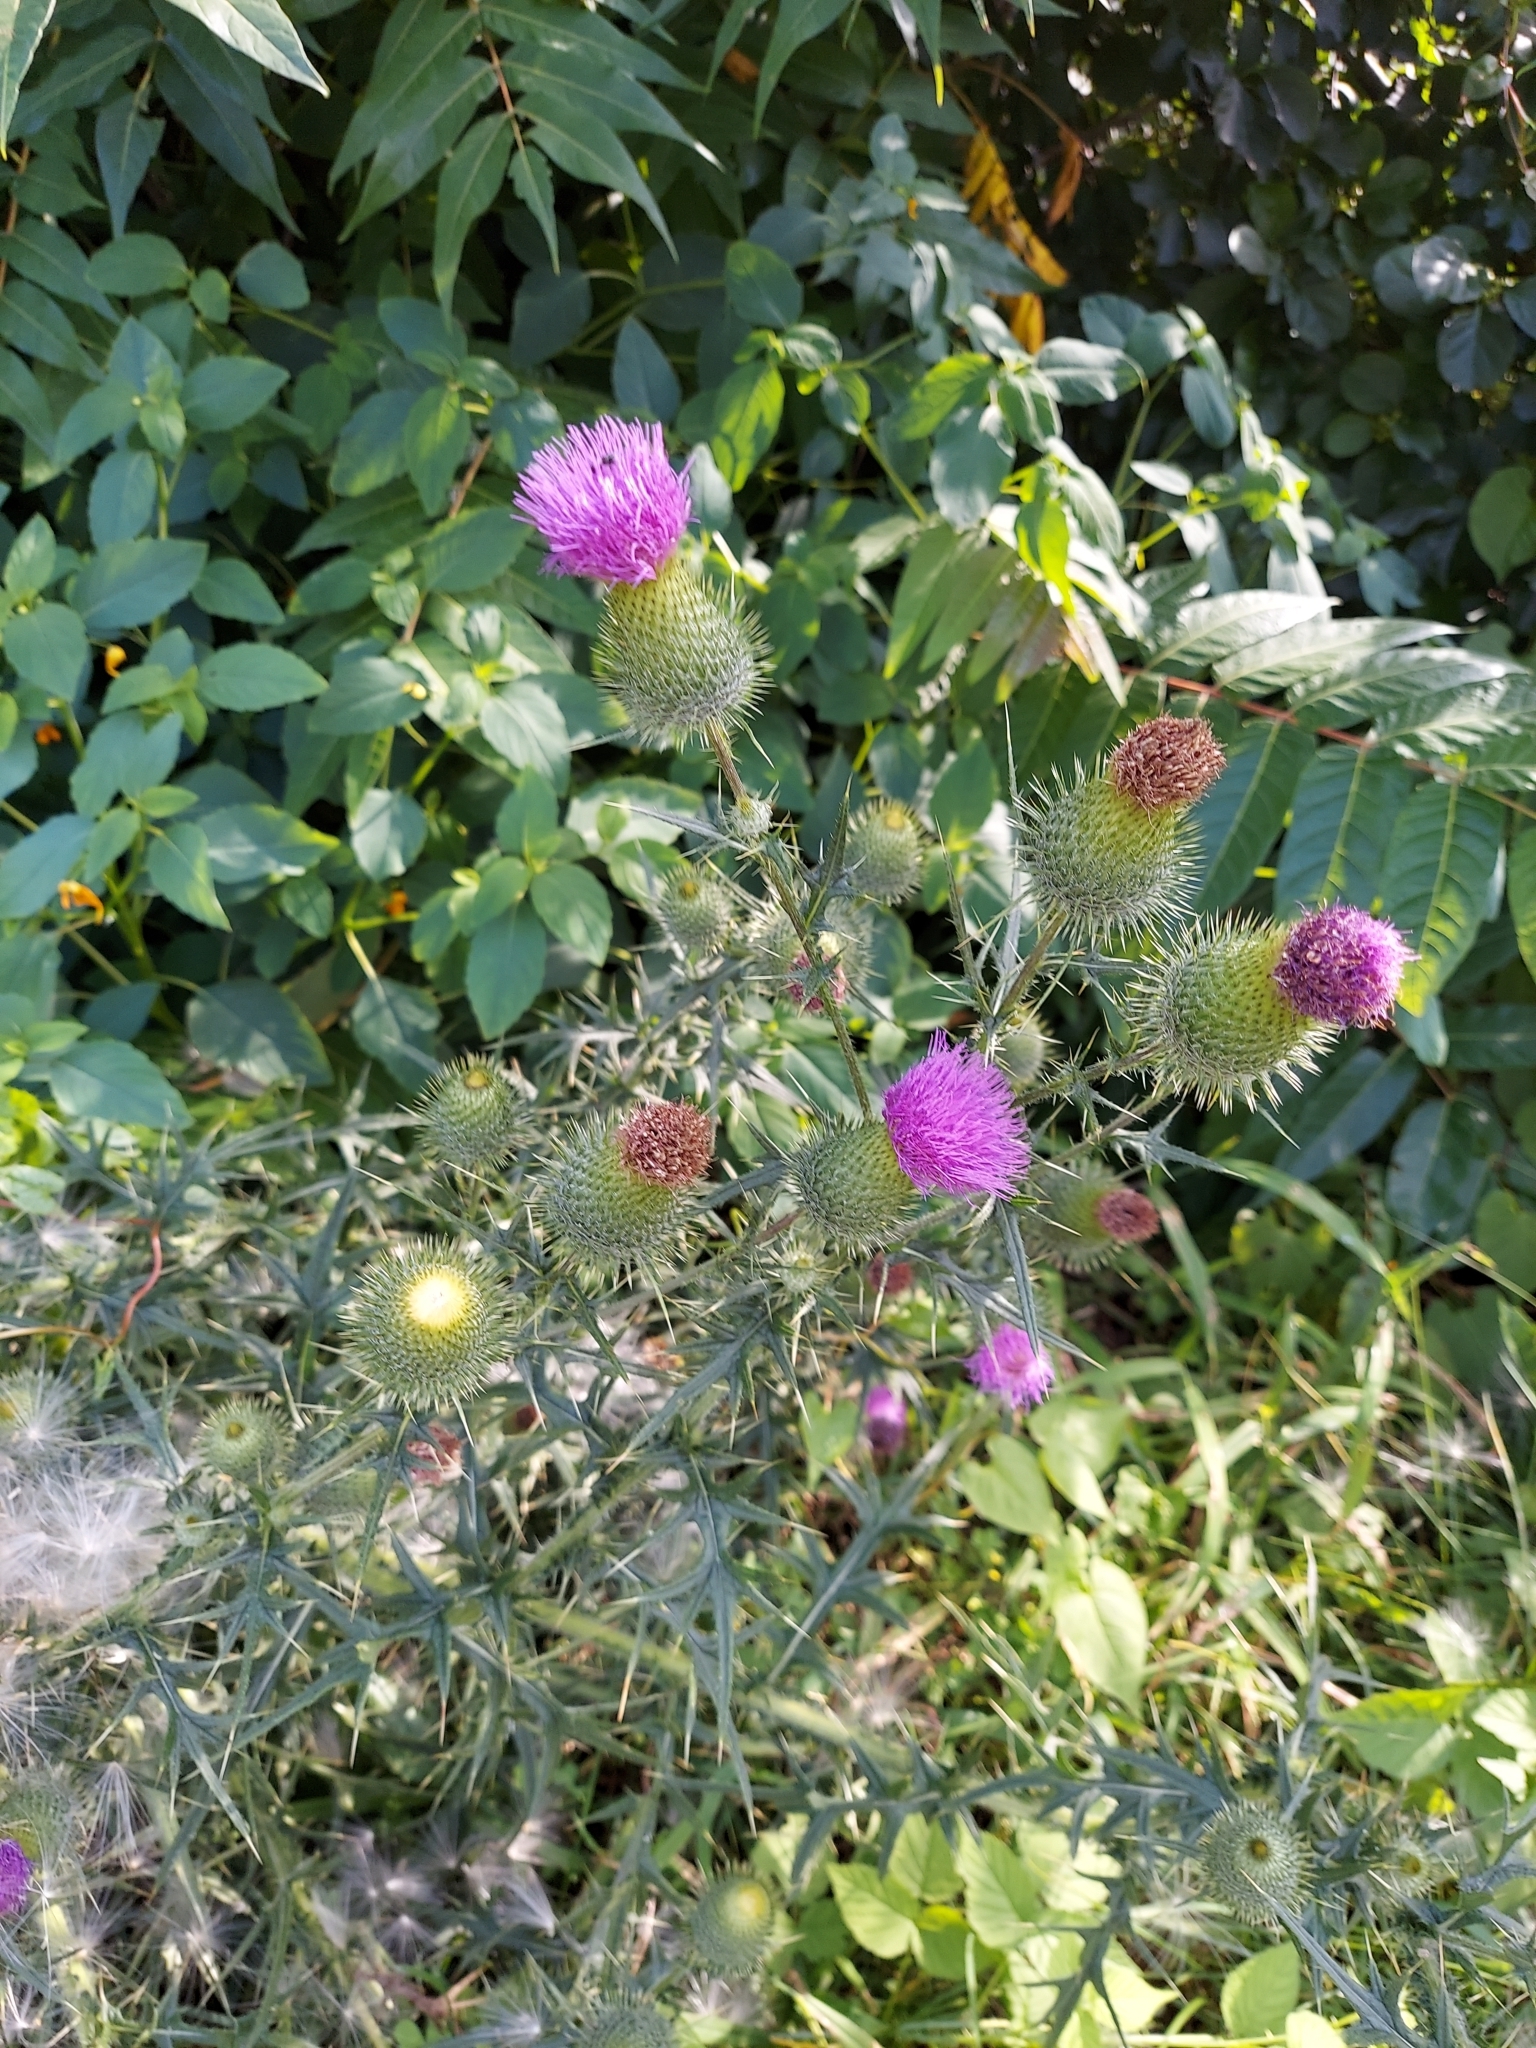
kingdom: Plantae
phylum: Tracheophyta
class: Magnoliopsida
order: Asterales
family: Asteraceae
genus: Cirsium
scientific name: Cirsium vulgare
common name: Bull thistle
